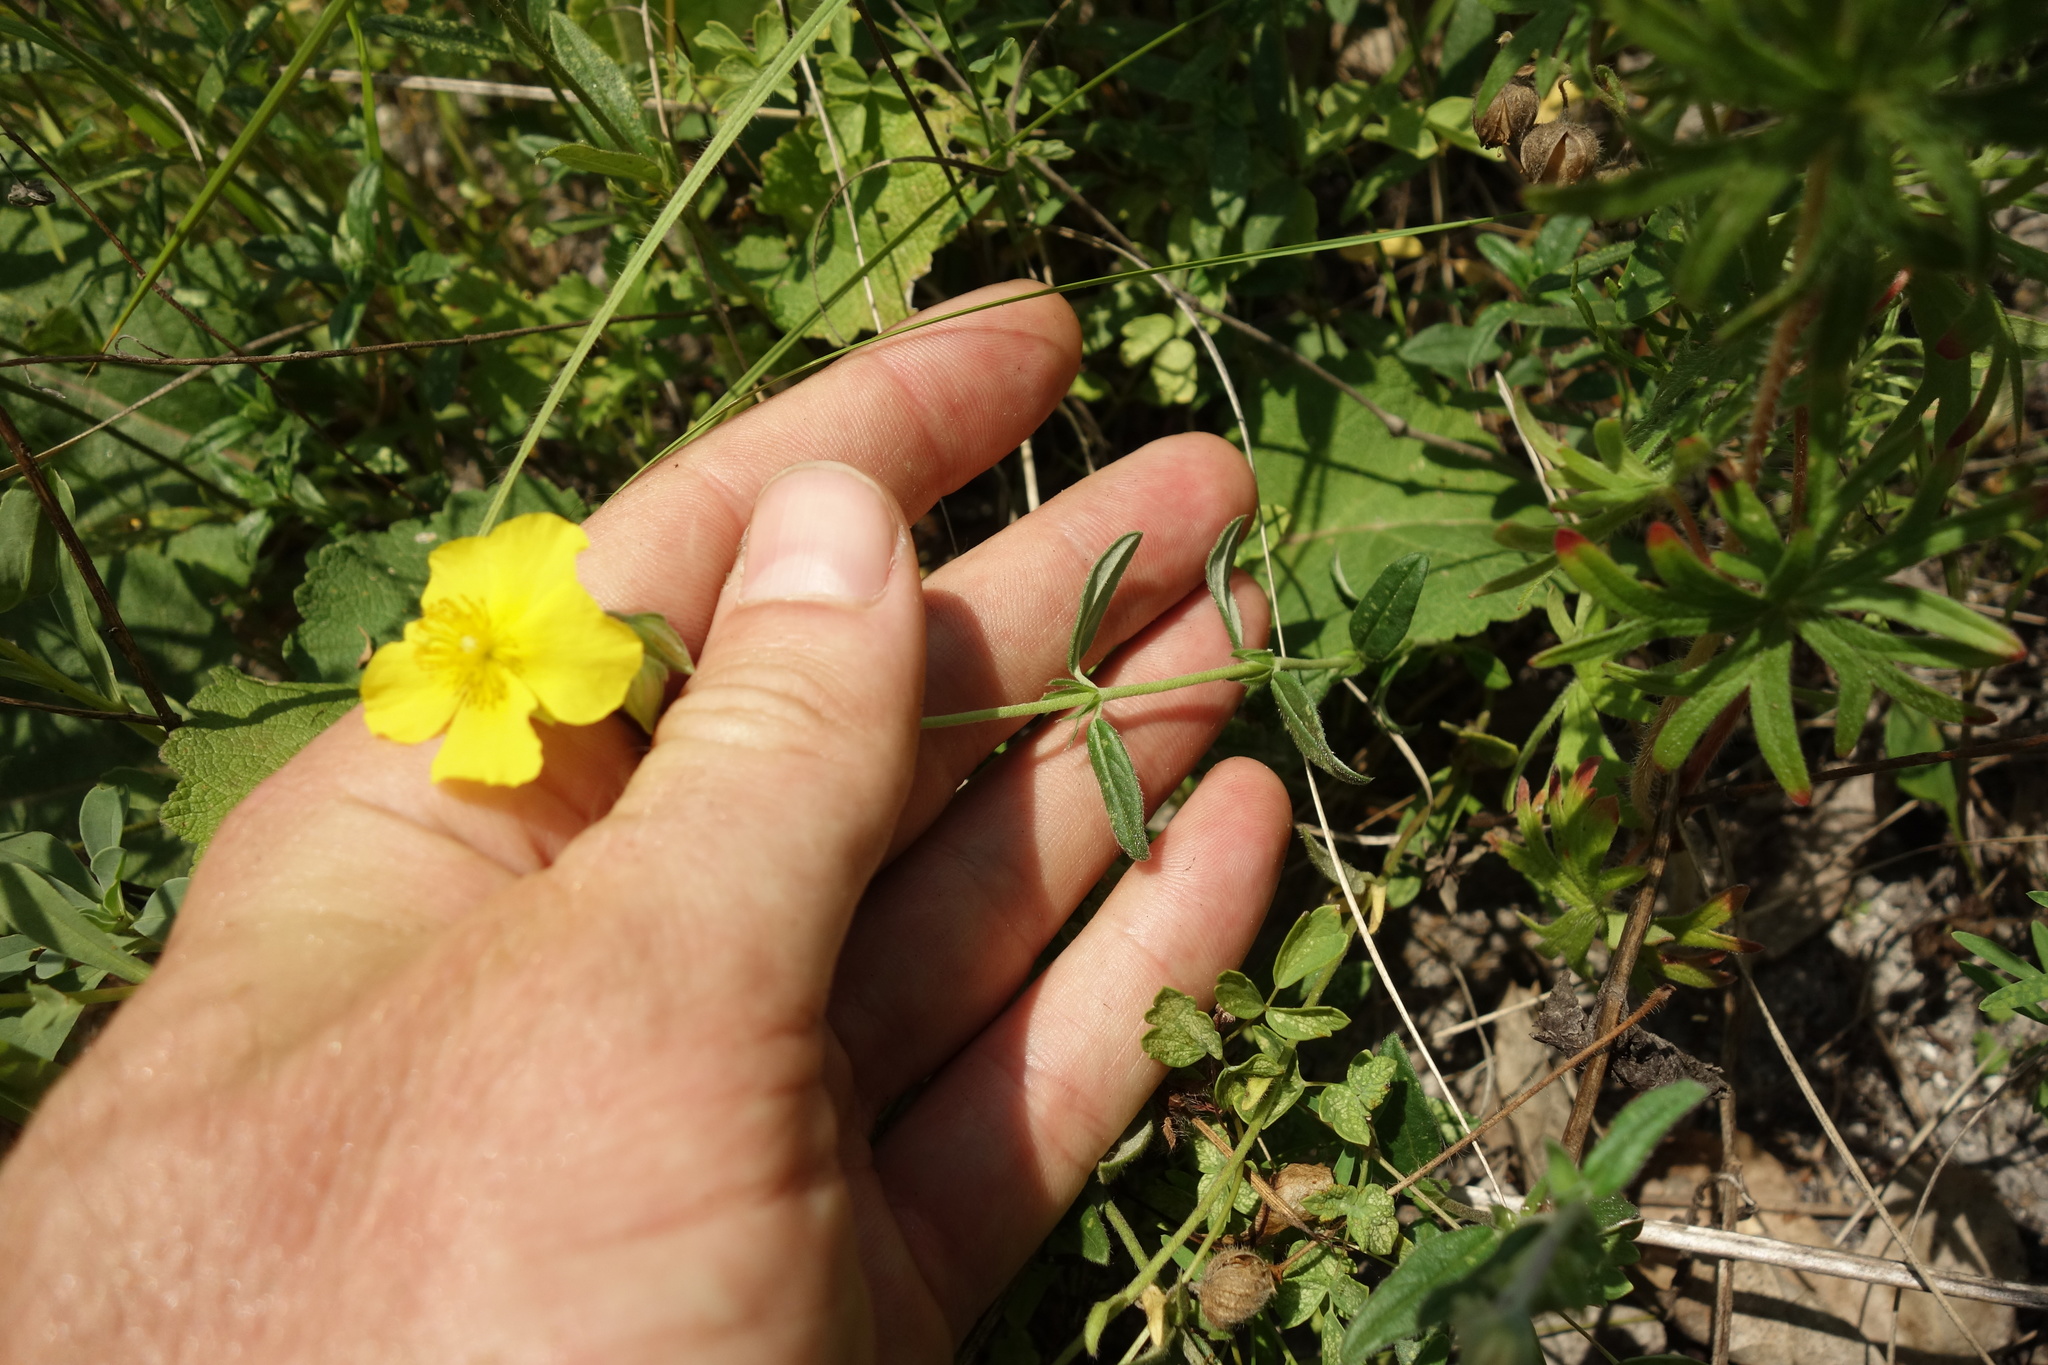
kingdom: Plantae
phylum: Tracheophyta
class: Magnoliopsida
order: Malvales
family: Cistaceae
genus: Helianthemum
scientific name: Helianthemum nummularium
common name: Common rock-rose
